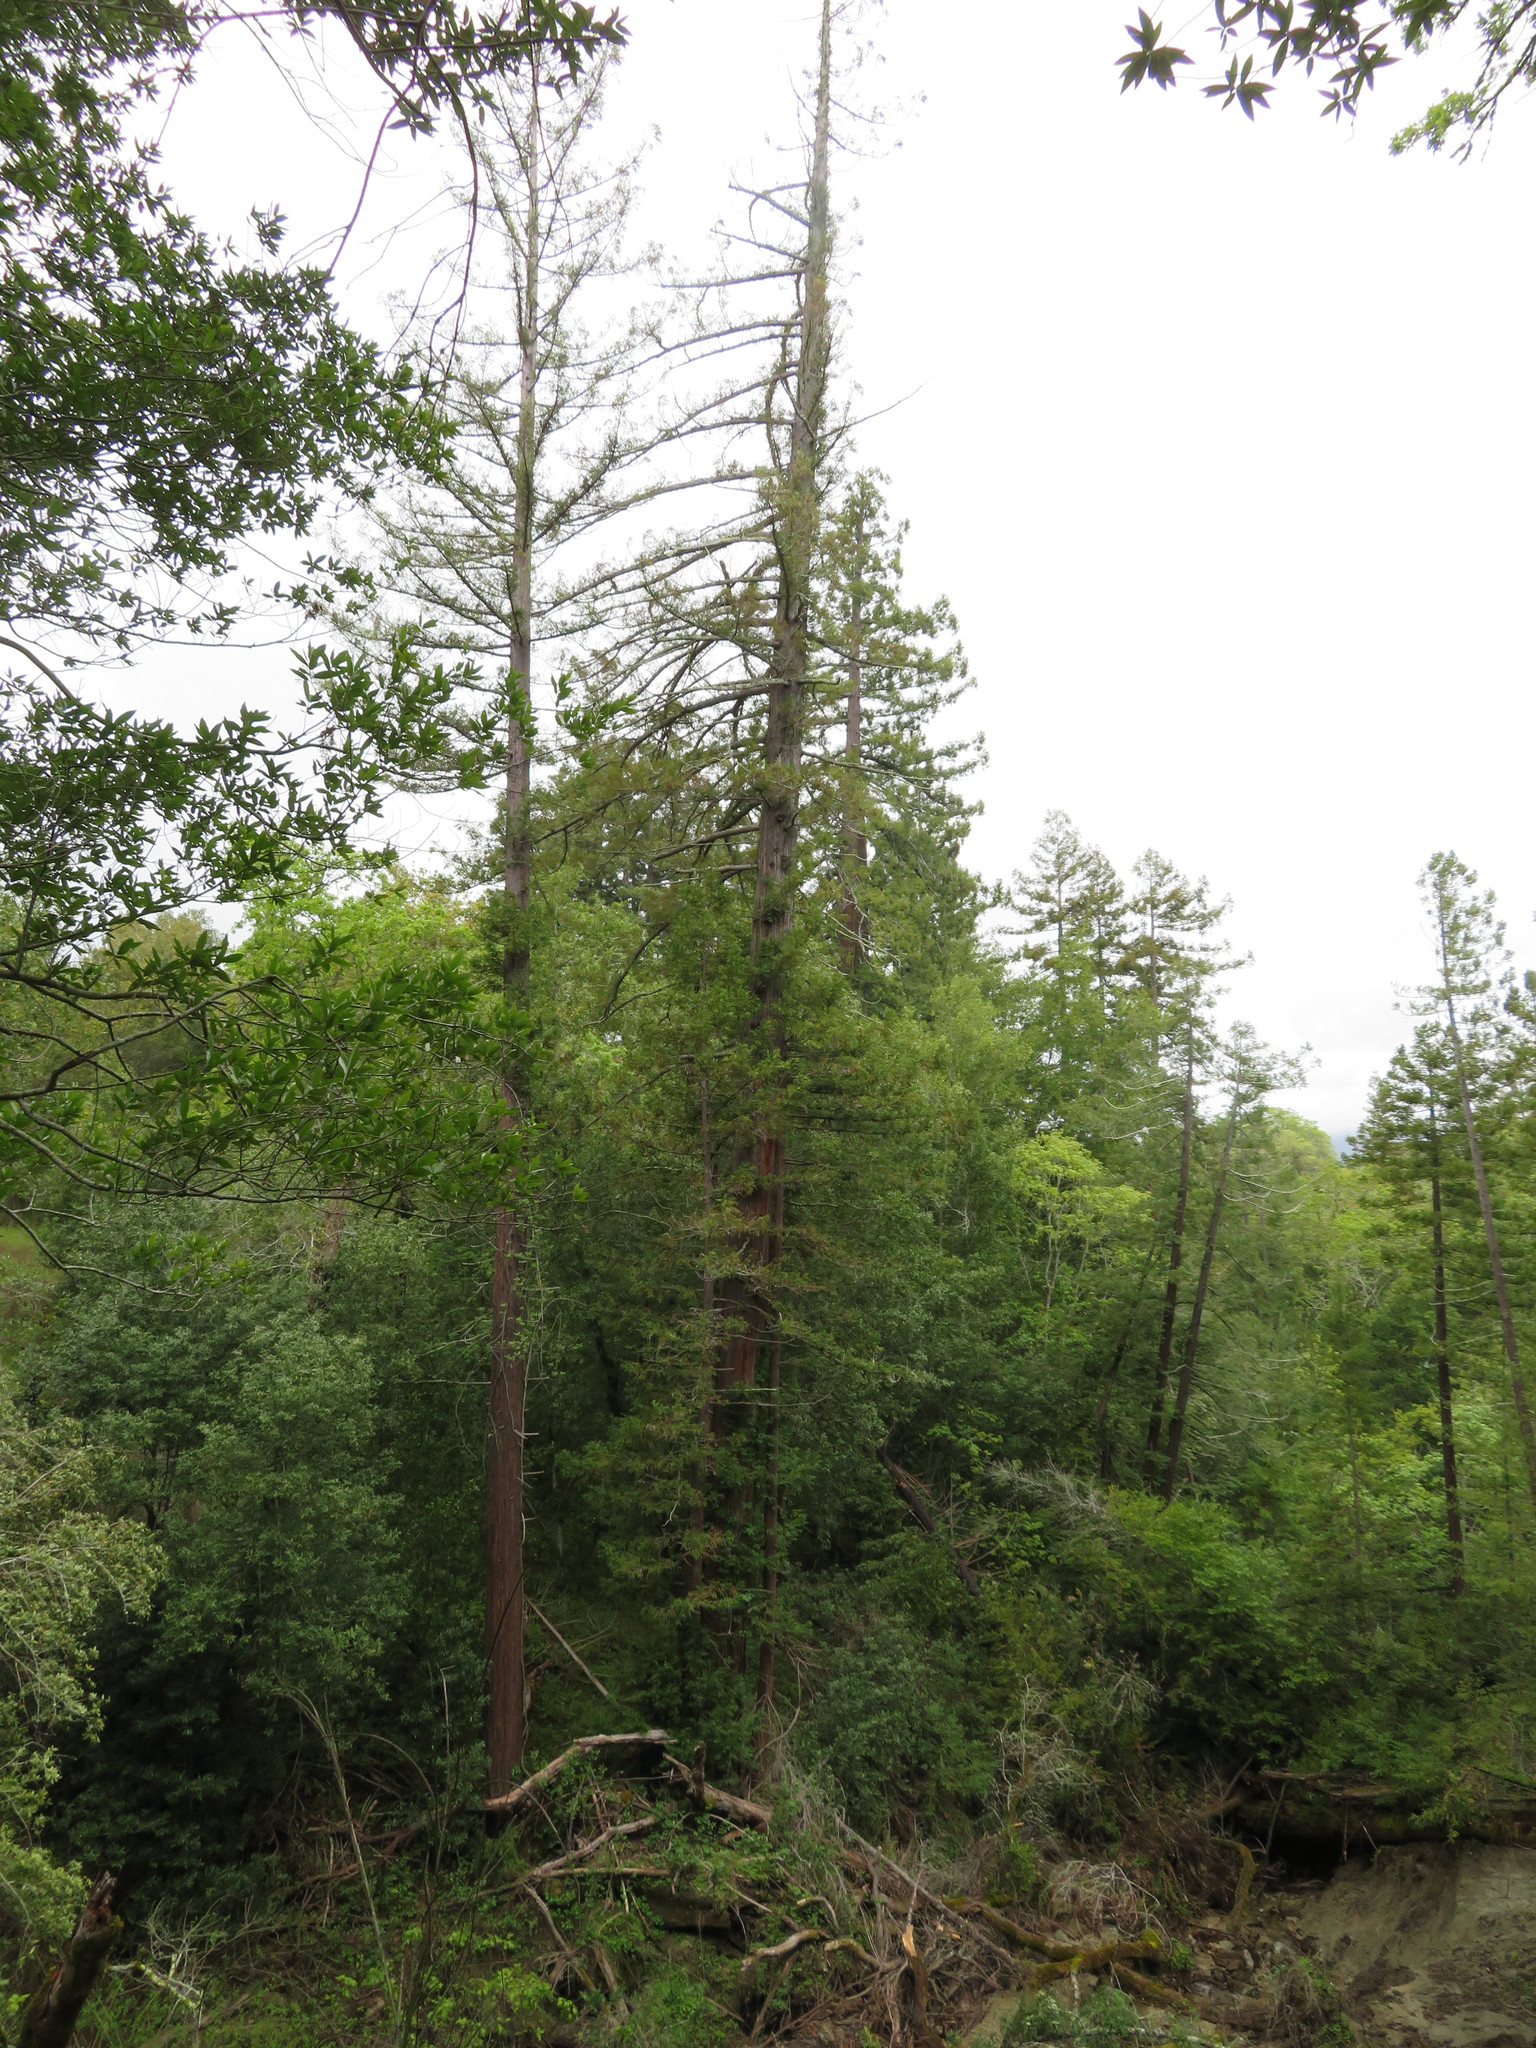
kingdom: Plantae
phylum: Tracheophyta
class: Pinopsida
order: Pinales
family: Cupressaceae
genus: Sequoia
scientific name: Sequoia sempervirens
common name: Coast redwood
